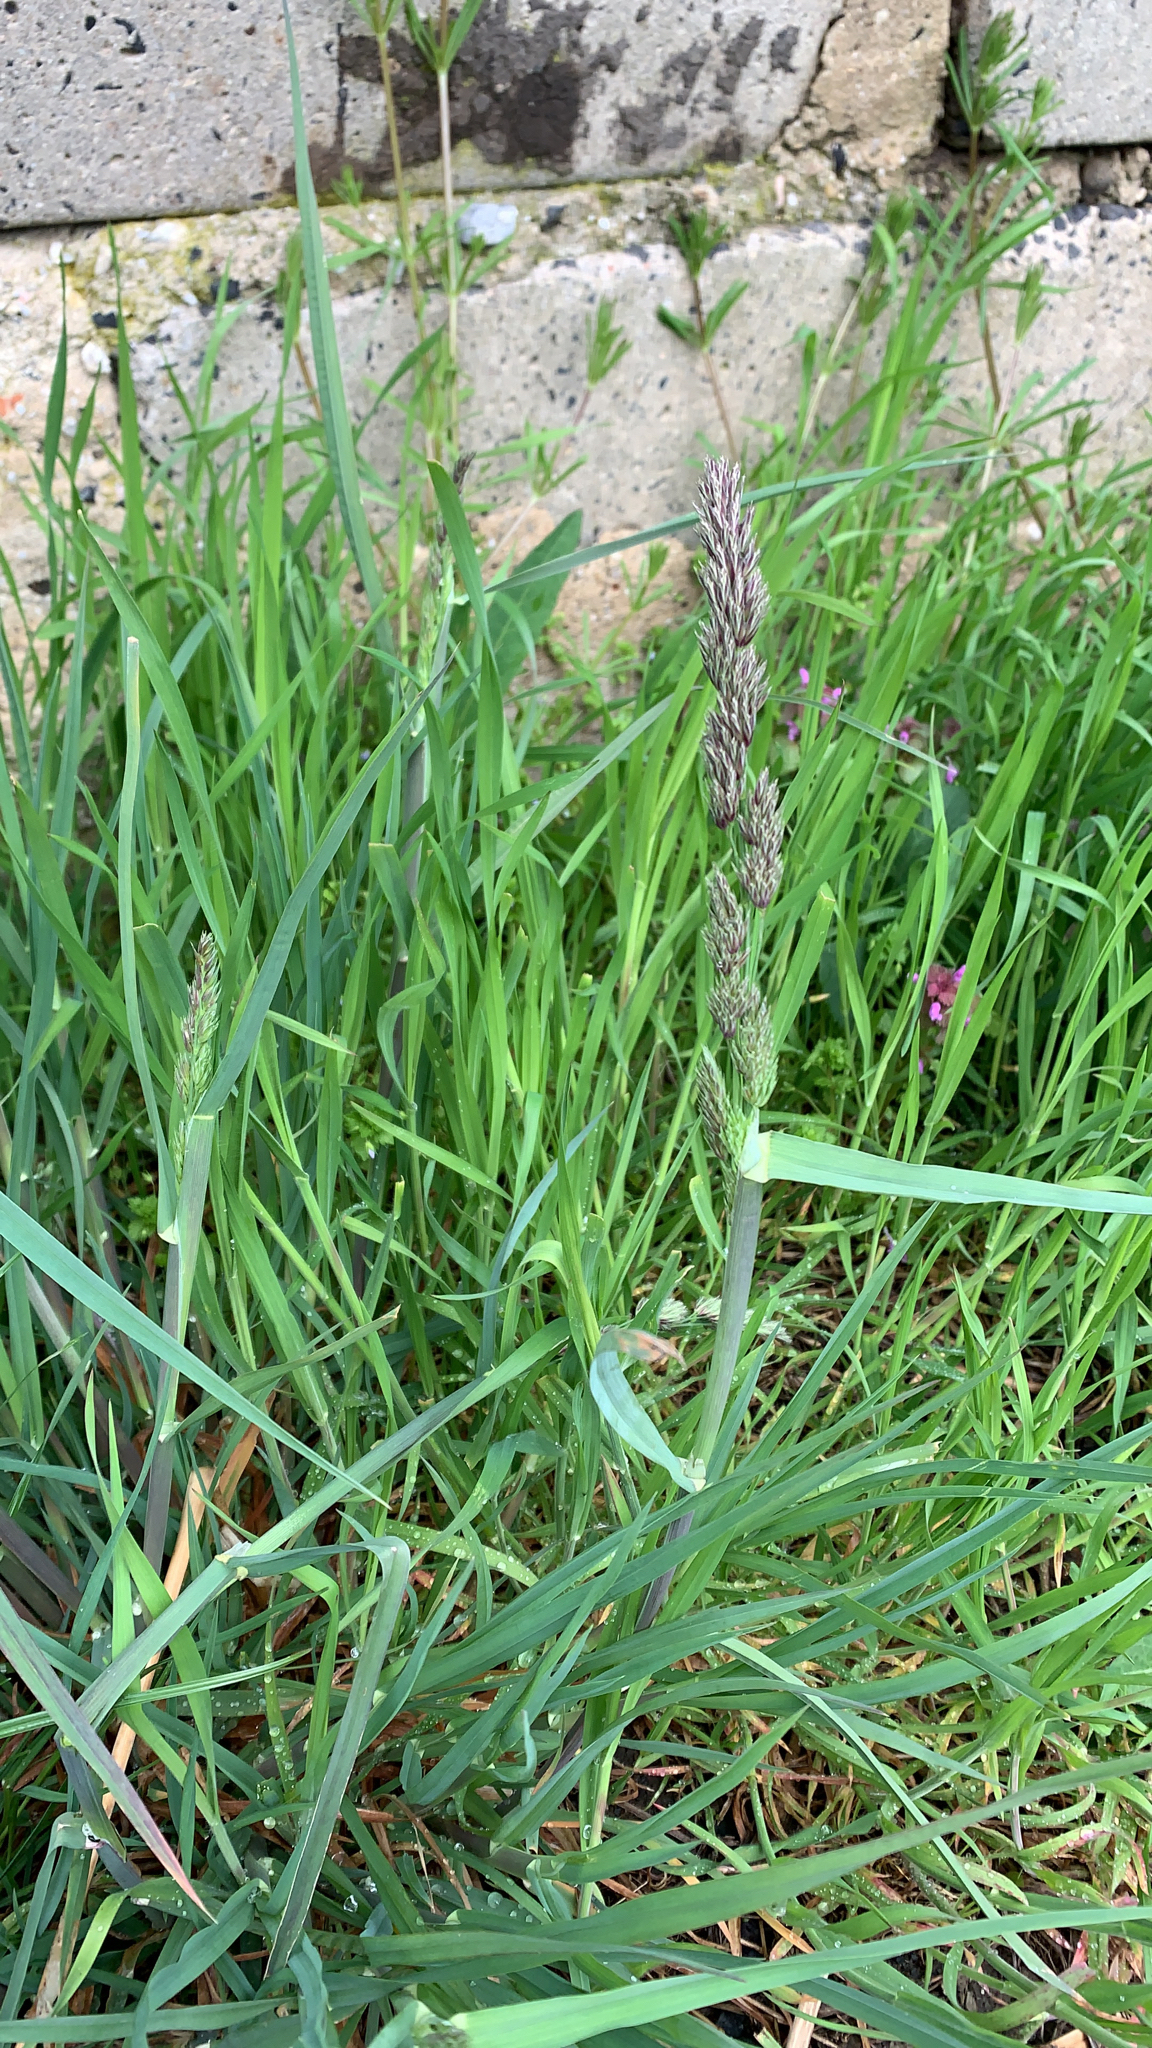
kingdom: Plantae
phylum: Tracheophyta
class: Liliopsida
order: Poales
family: Poaceae
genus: Dactylis
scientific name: Dactylis glomerata
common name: Orchardgrass
